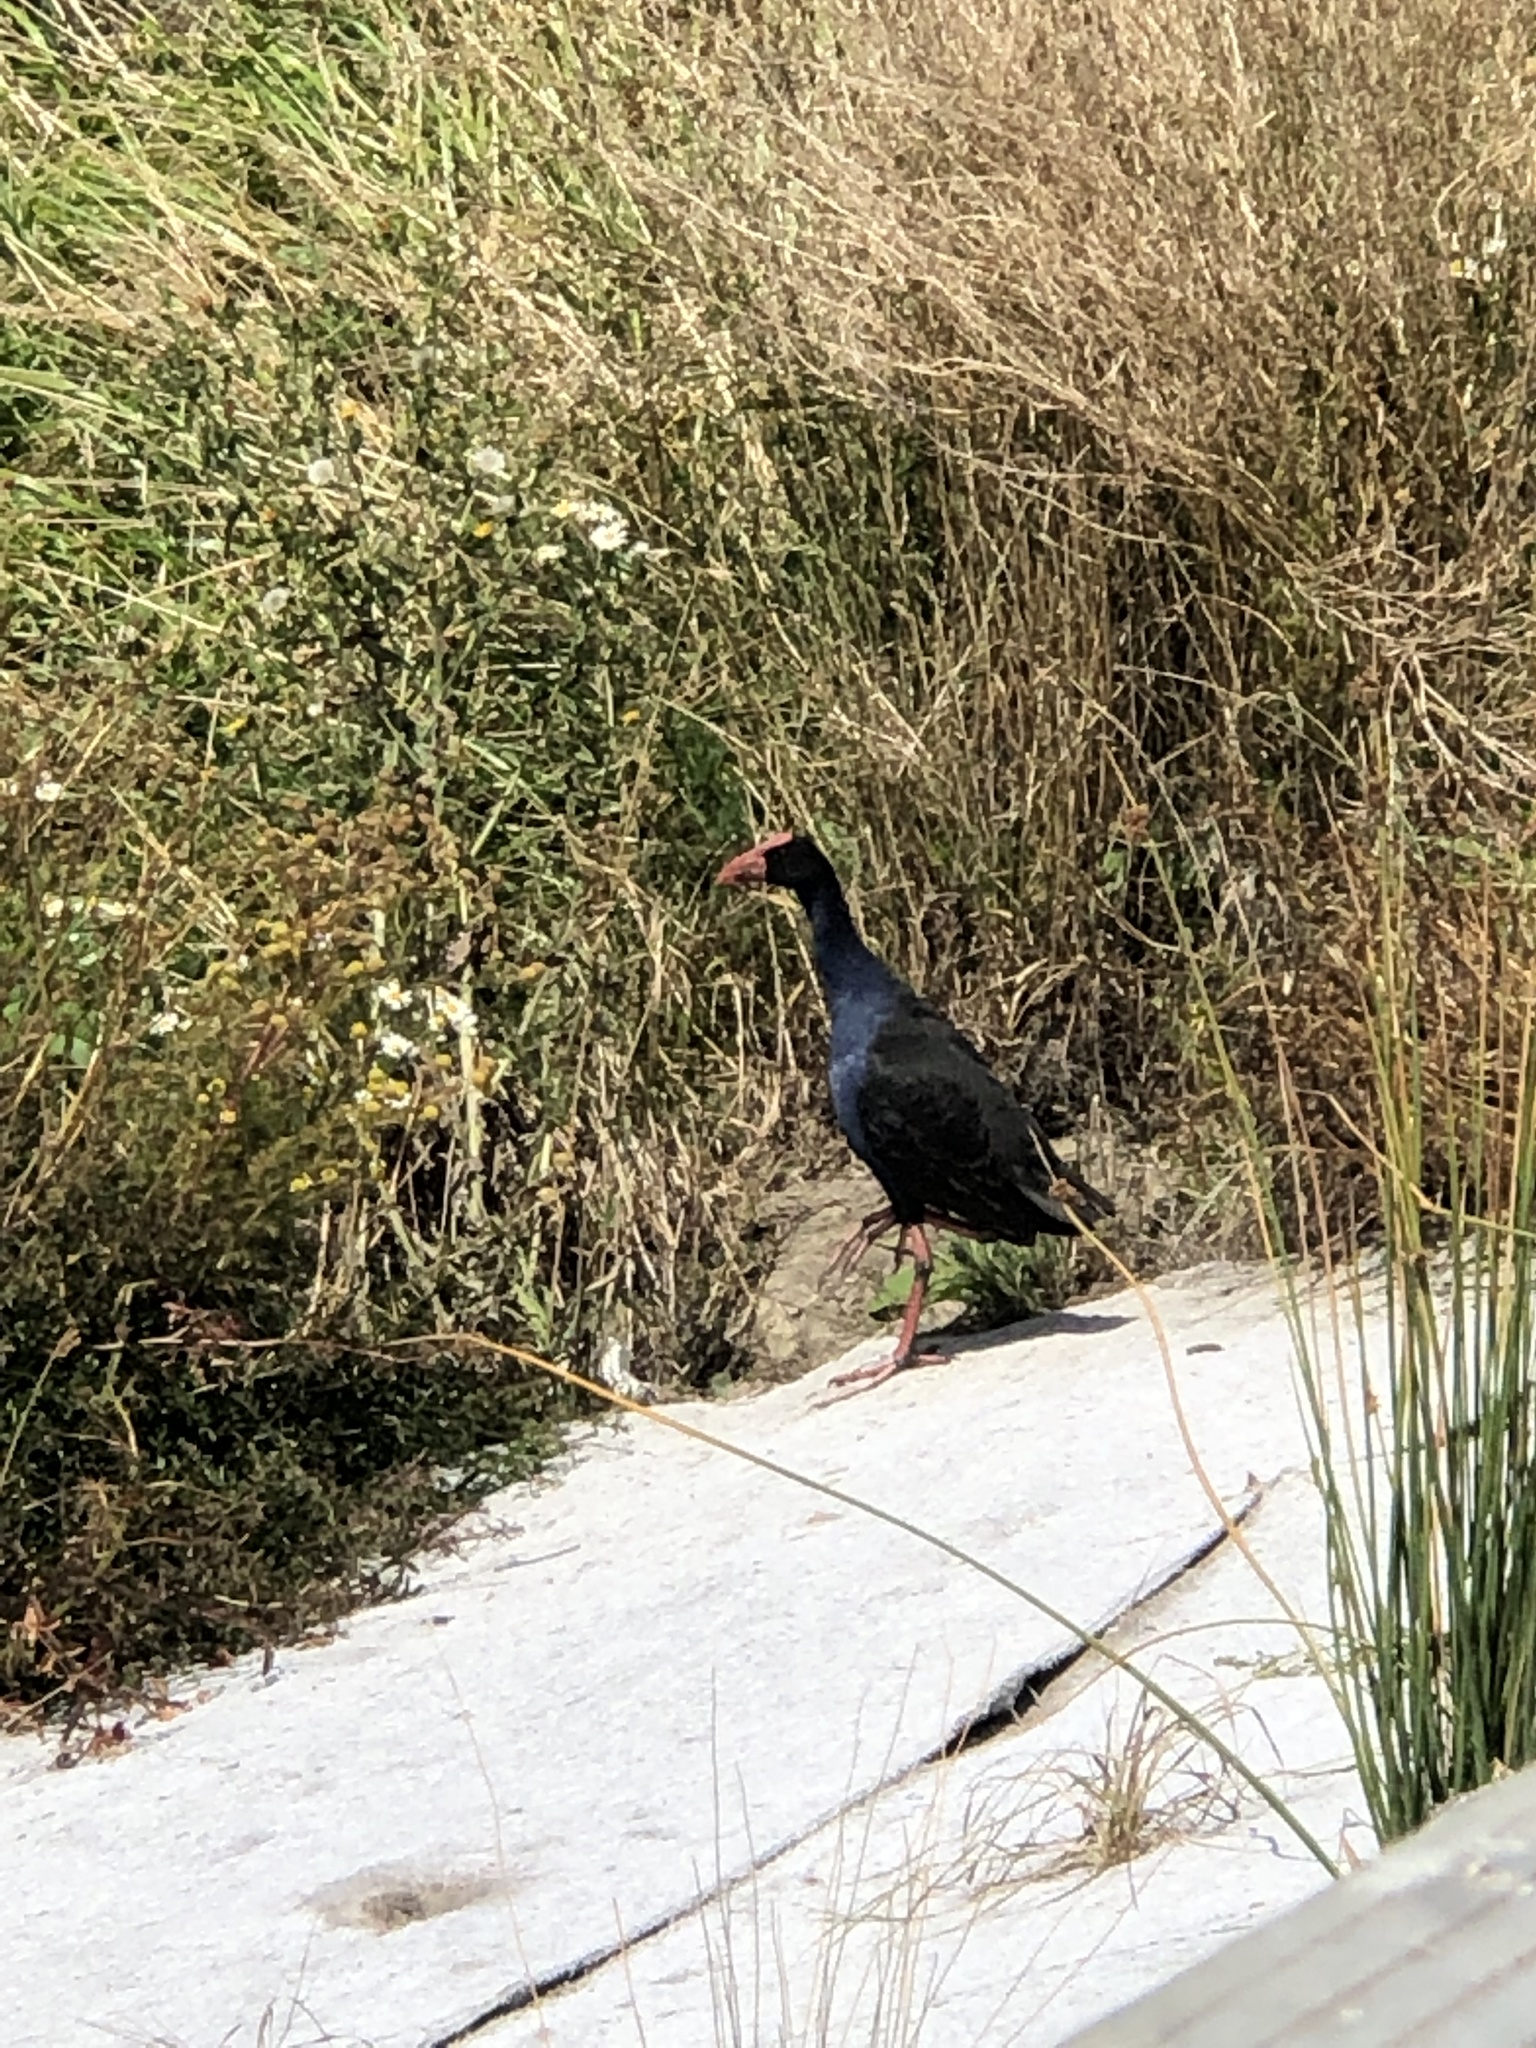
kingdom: Animalia
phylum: Chordata
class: Aves
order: Gruiformes
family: Rallidae
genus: Porphyrio
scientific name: Porphyrio melanotus
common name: Australasian swamphen
